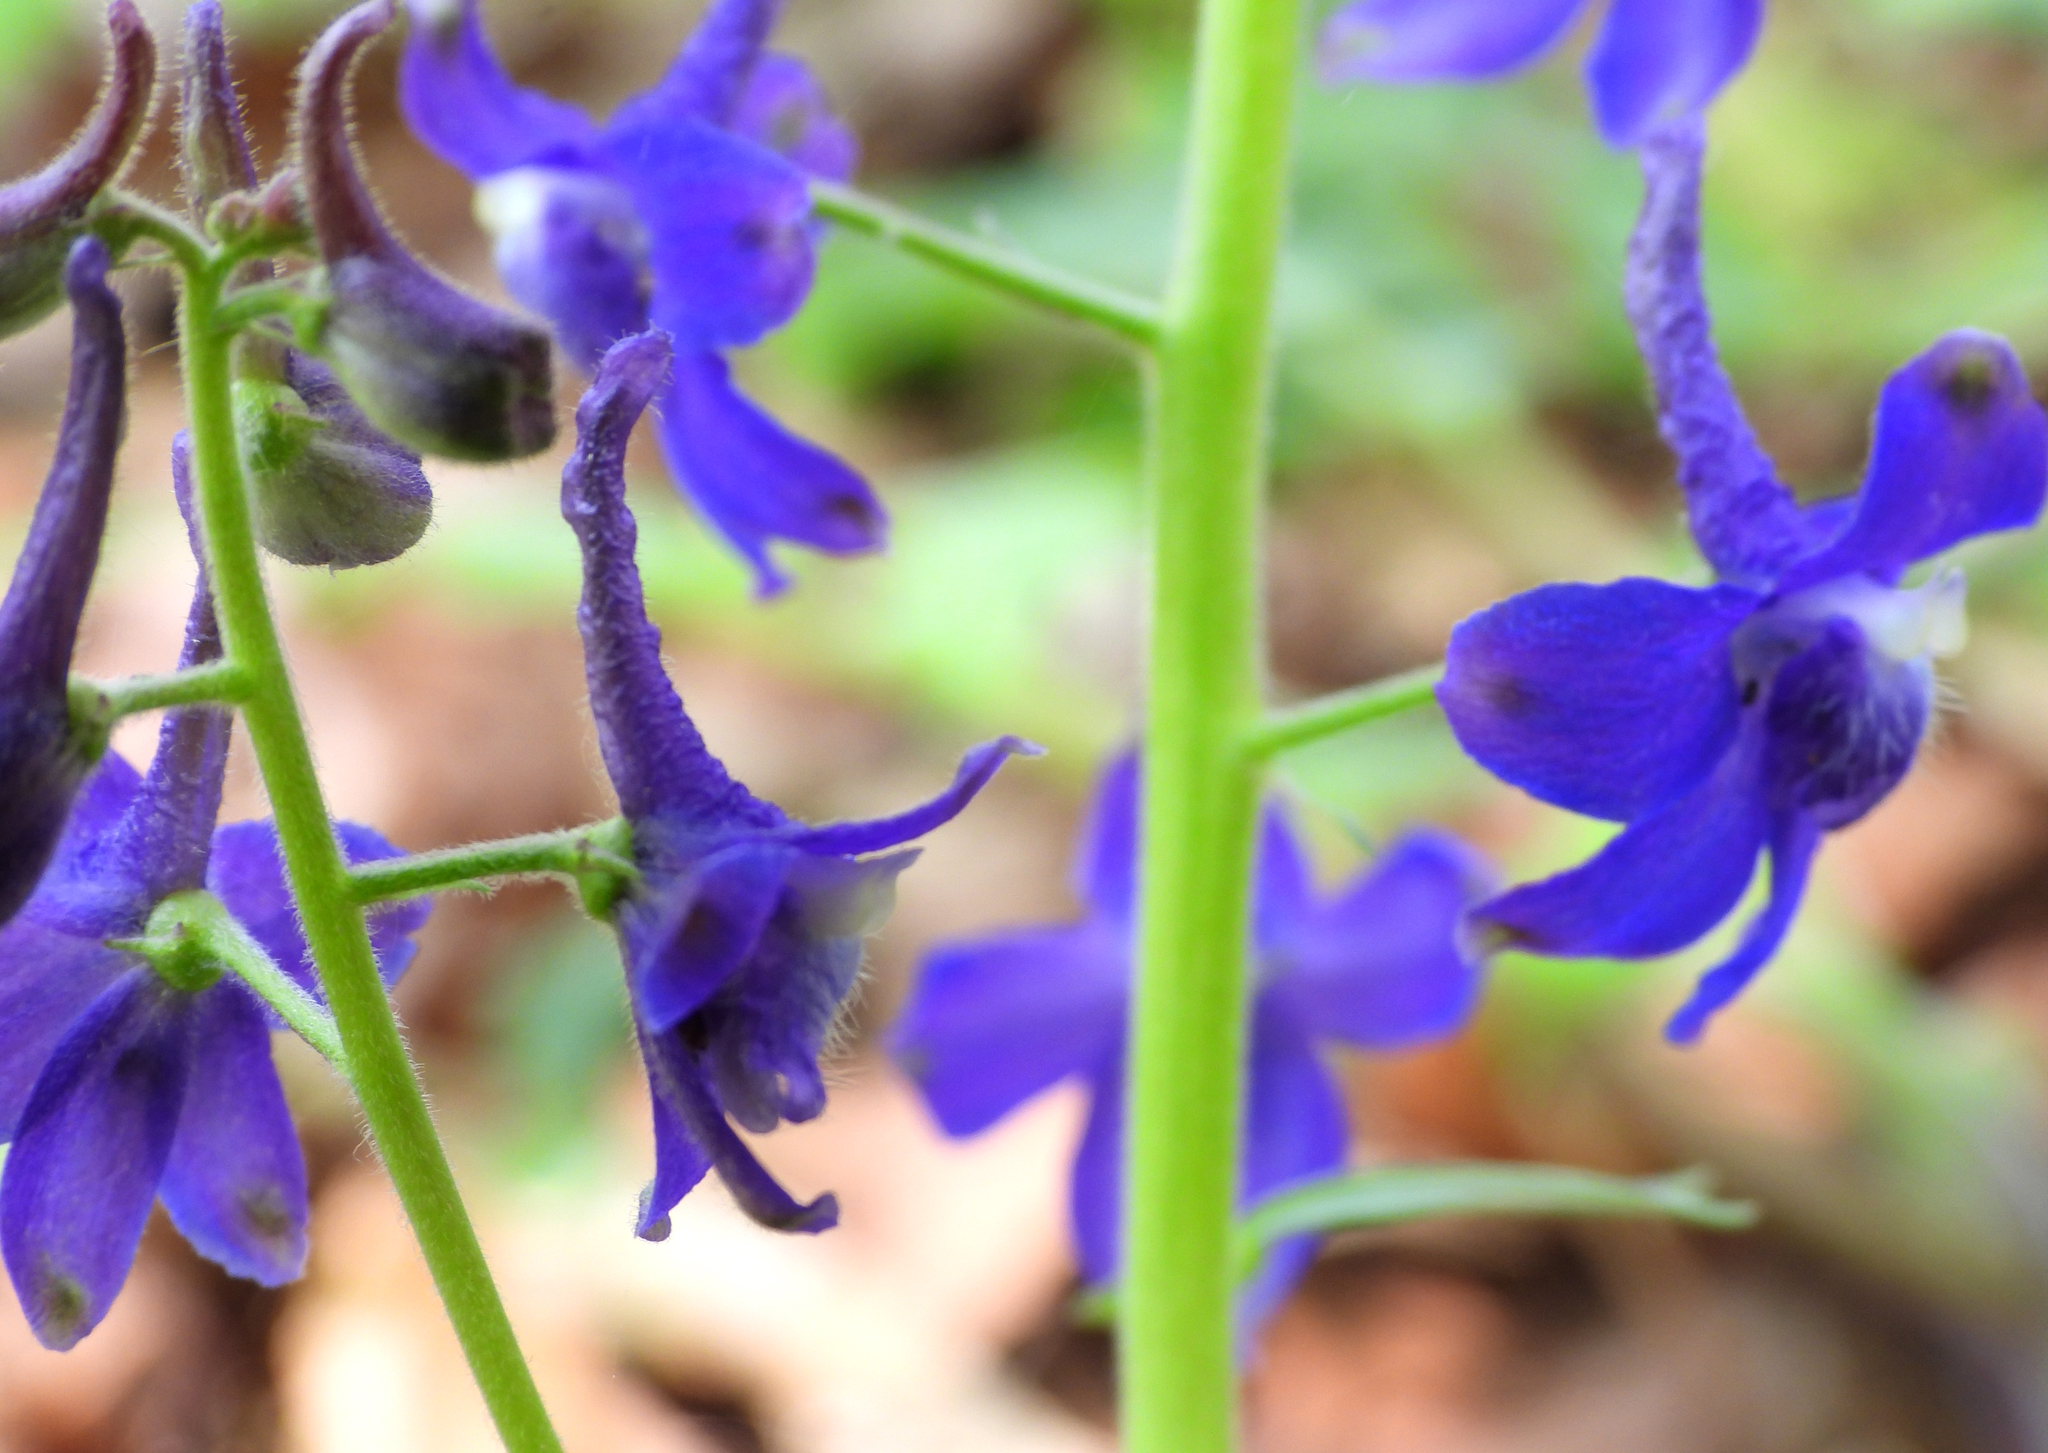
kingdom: Plantae
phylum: Tracheophyta
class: Magnoliopsida
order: Ranunculales
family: Ranunculaceae
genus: Delphinium
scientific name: Delphinium tricorne
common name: Dwarf larkspur
